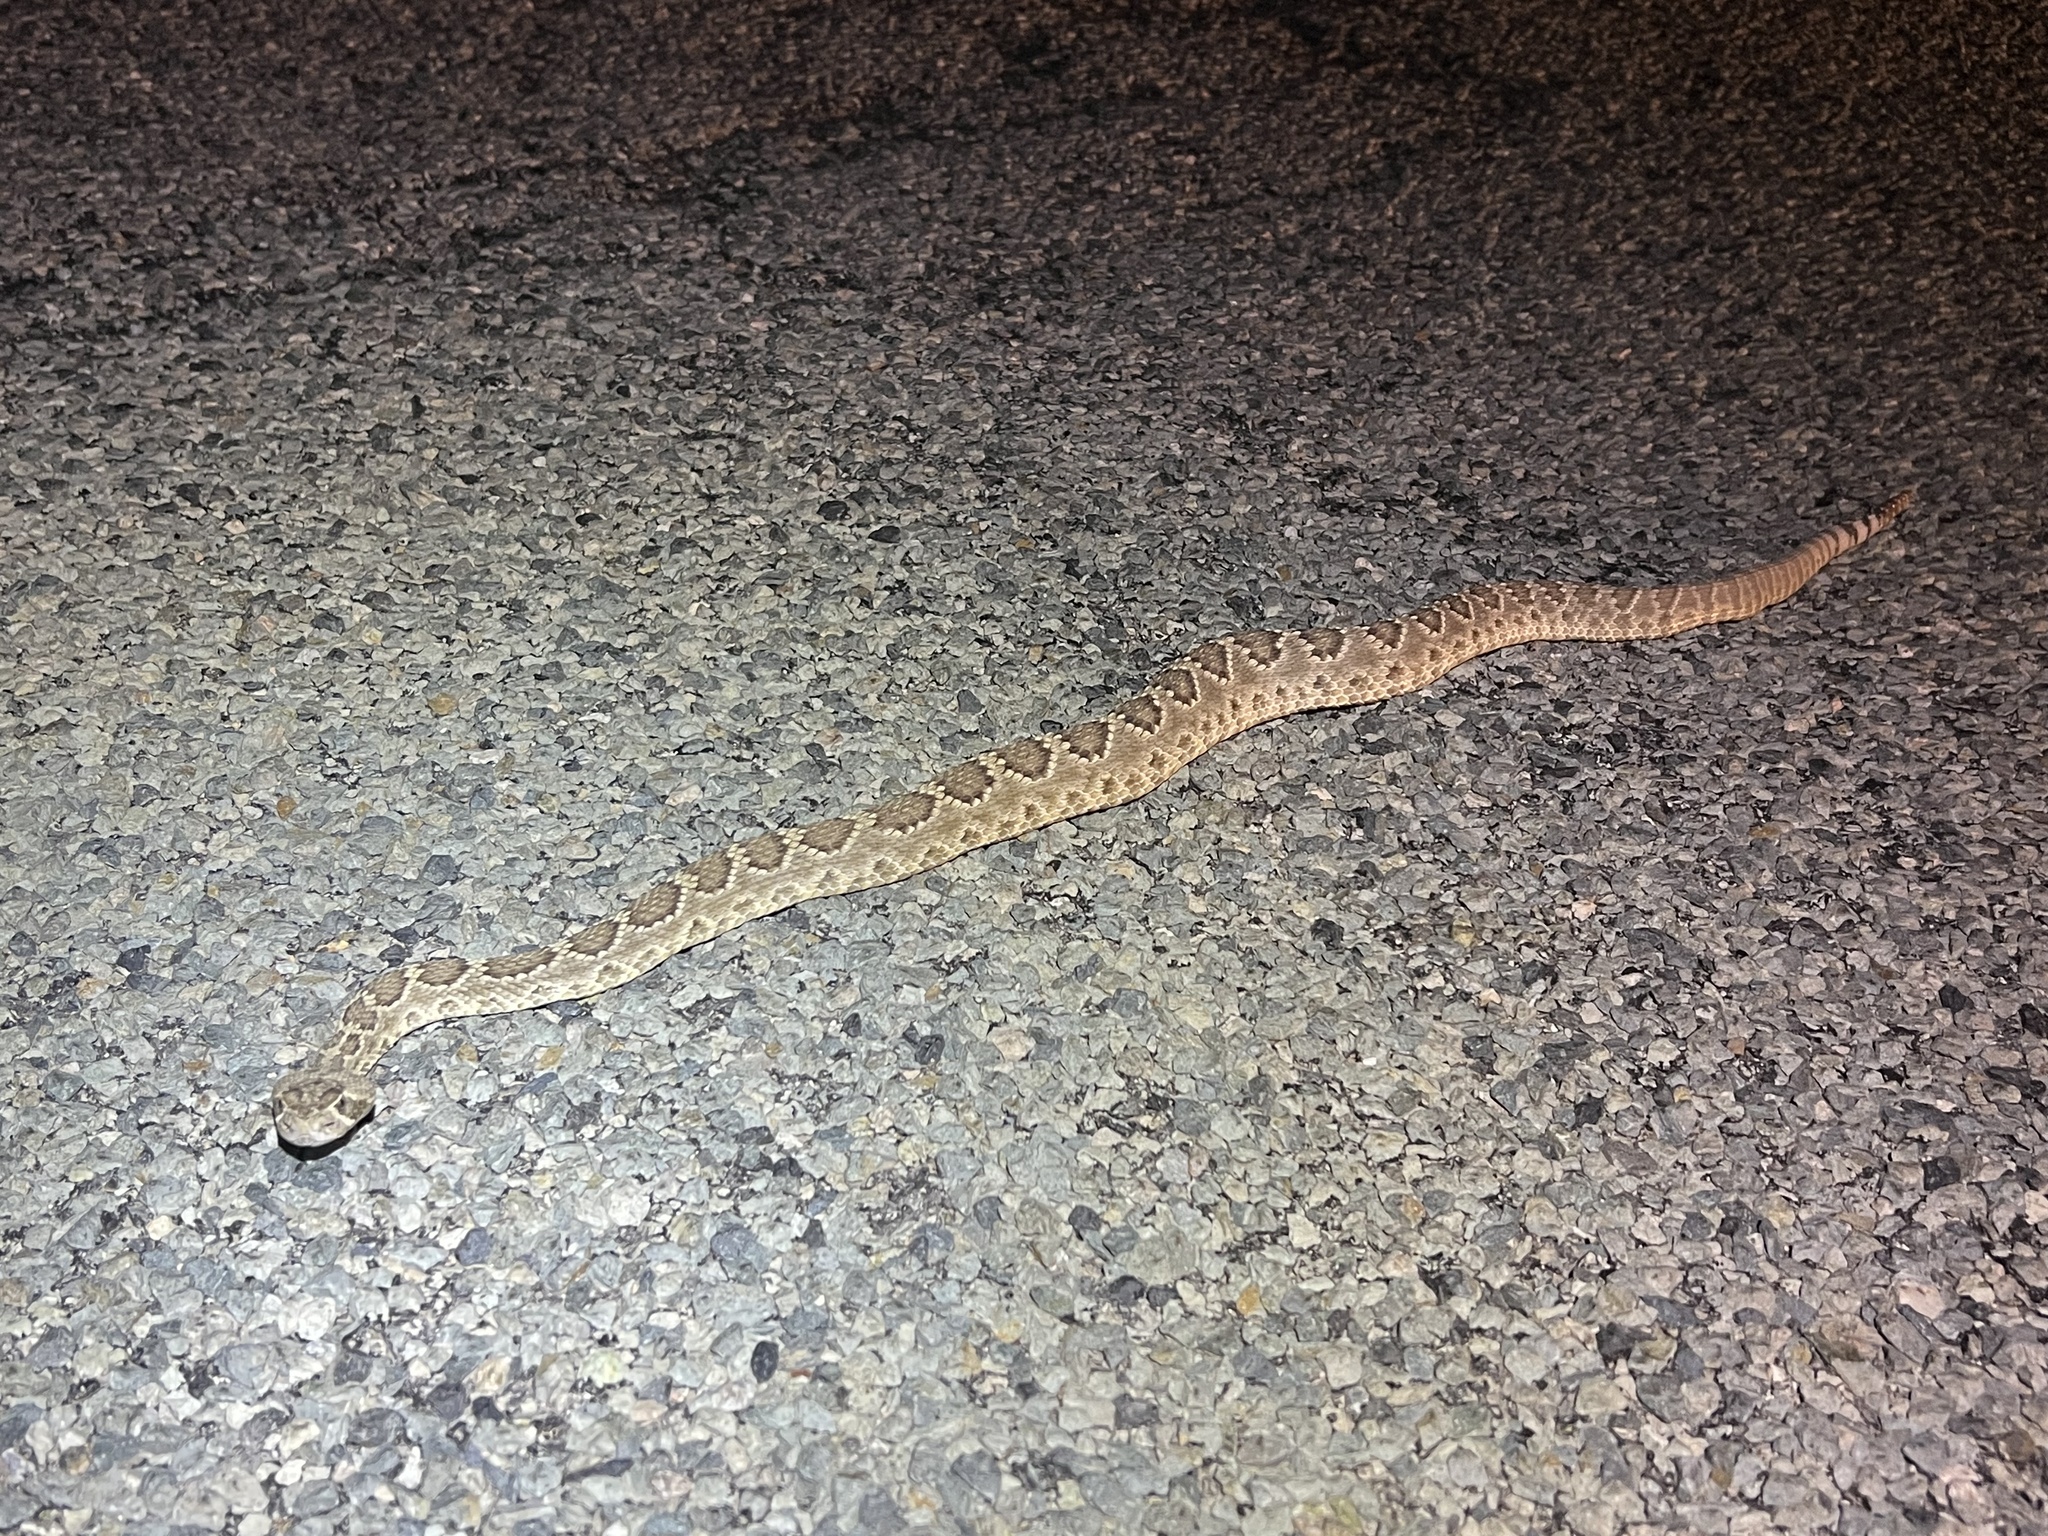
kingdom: Animalia
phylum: Chordata
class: Squamata
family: Viperidae
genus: Crotalus
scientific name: Crotalus scutulatus
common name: Scutulatus
